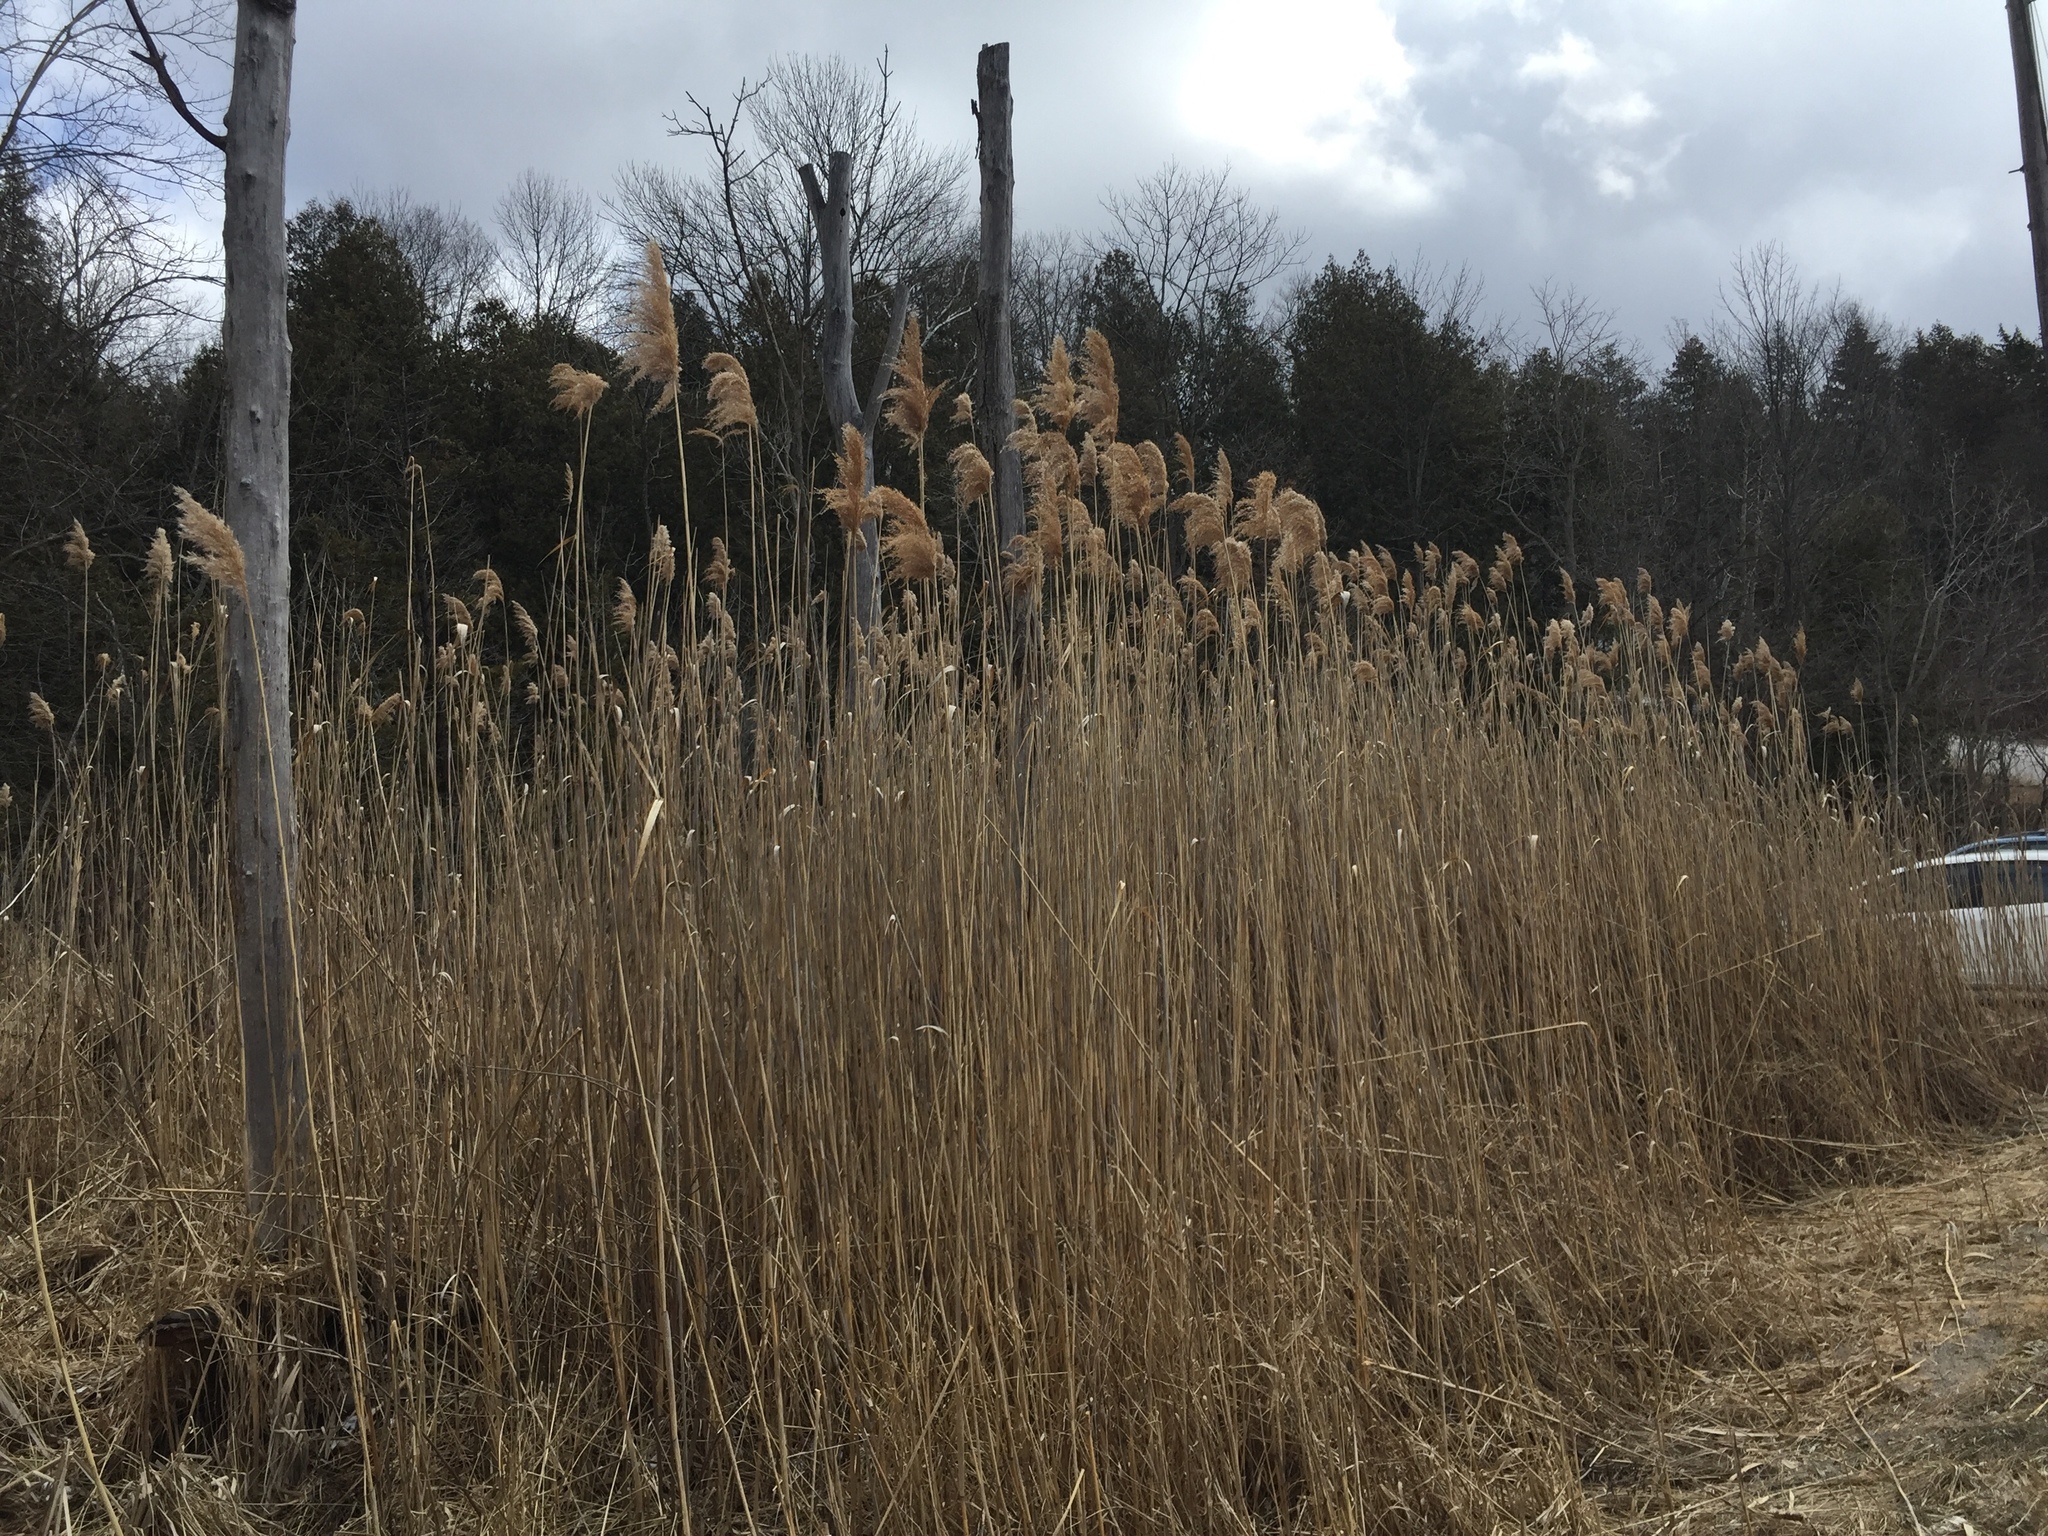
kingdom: Plantae
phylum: Tracheophyta
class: Liliopsida
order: Poales
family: Poaceae
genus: Phragmites
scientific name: Phragmites australis
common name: Common reed
